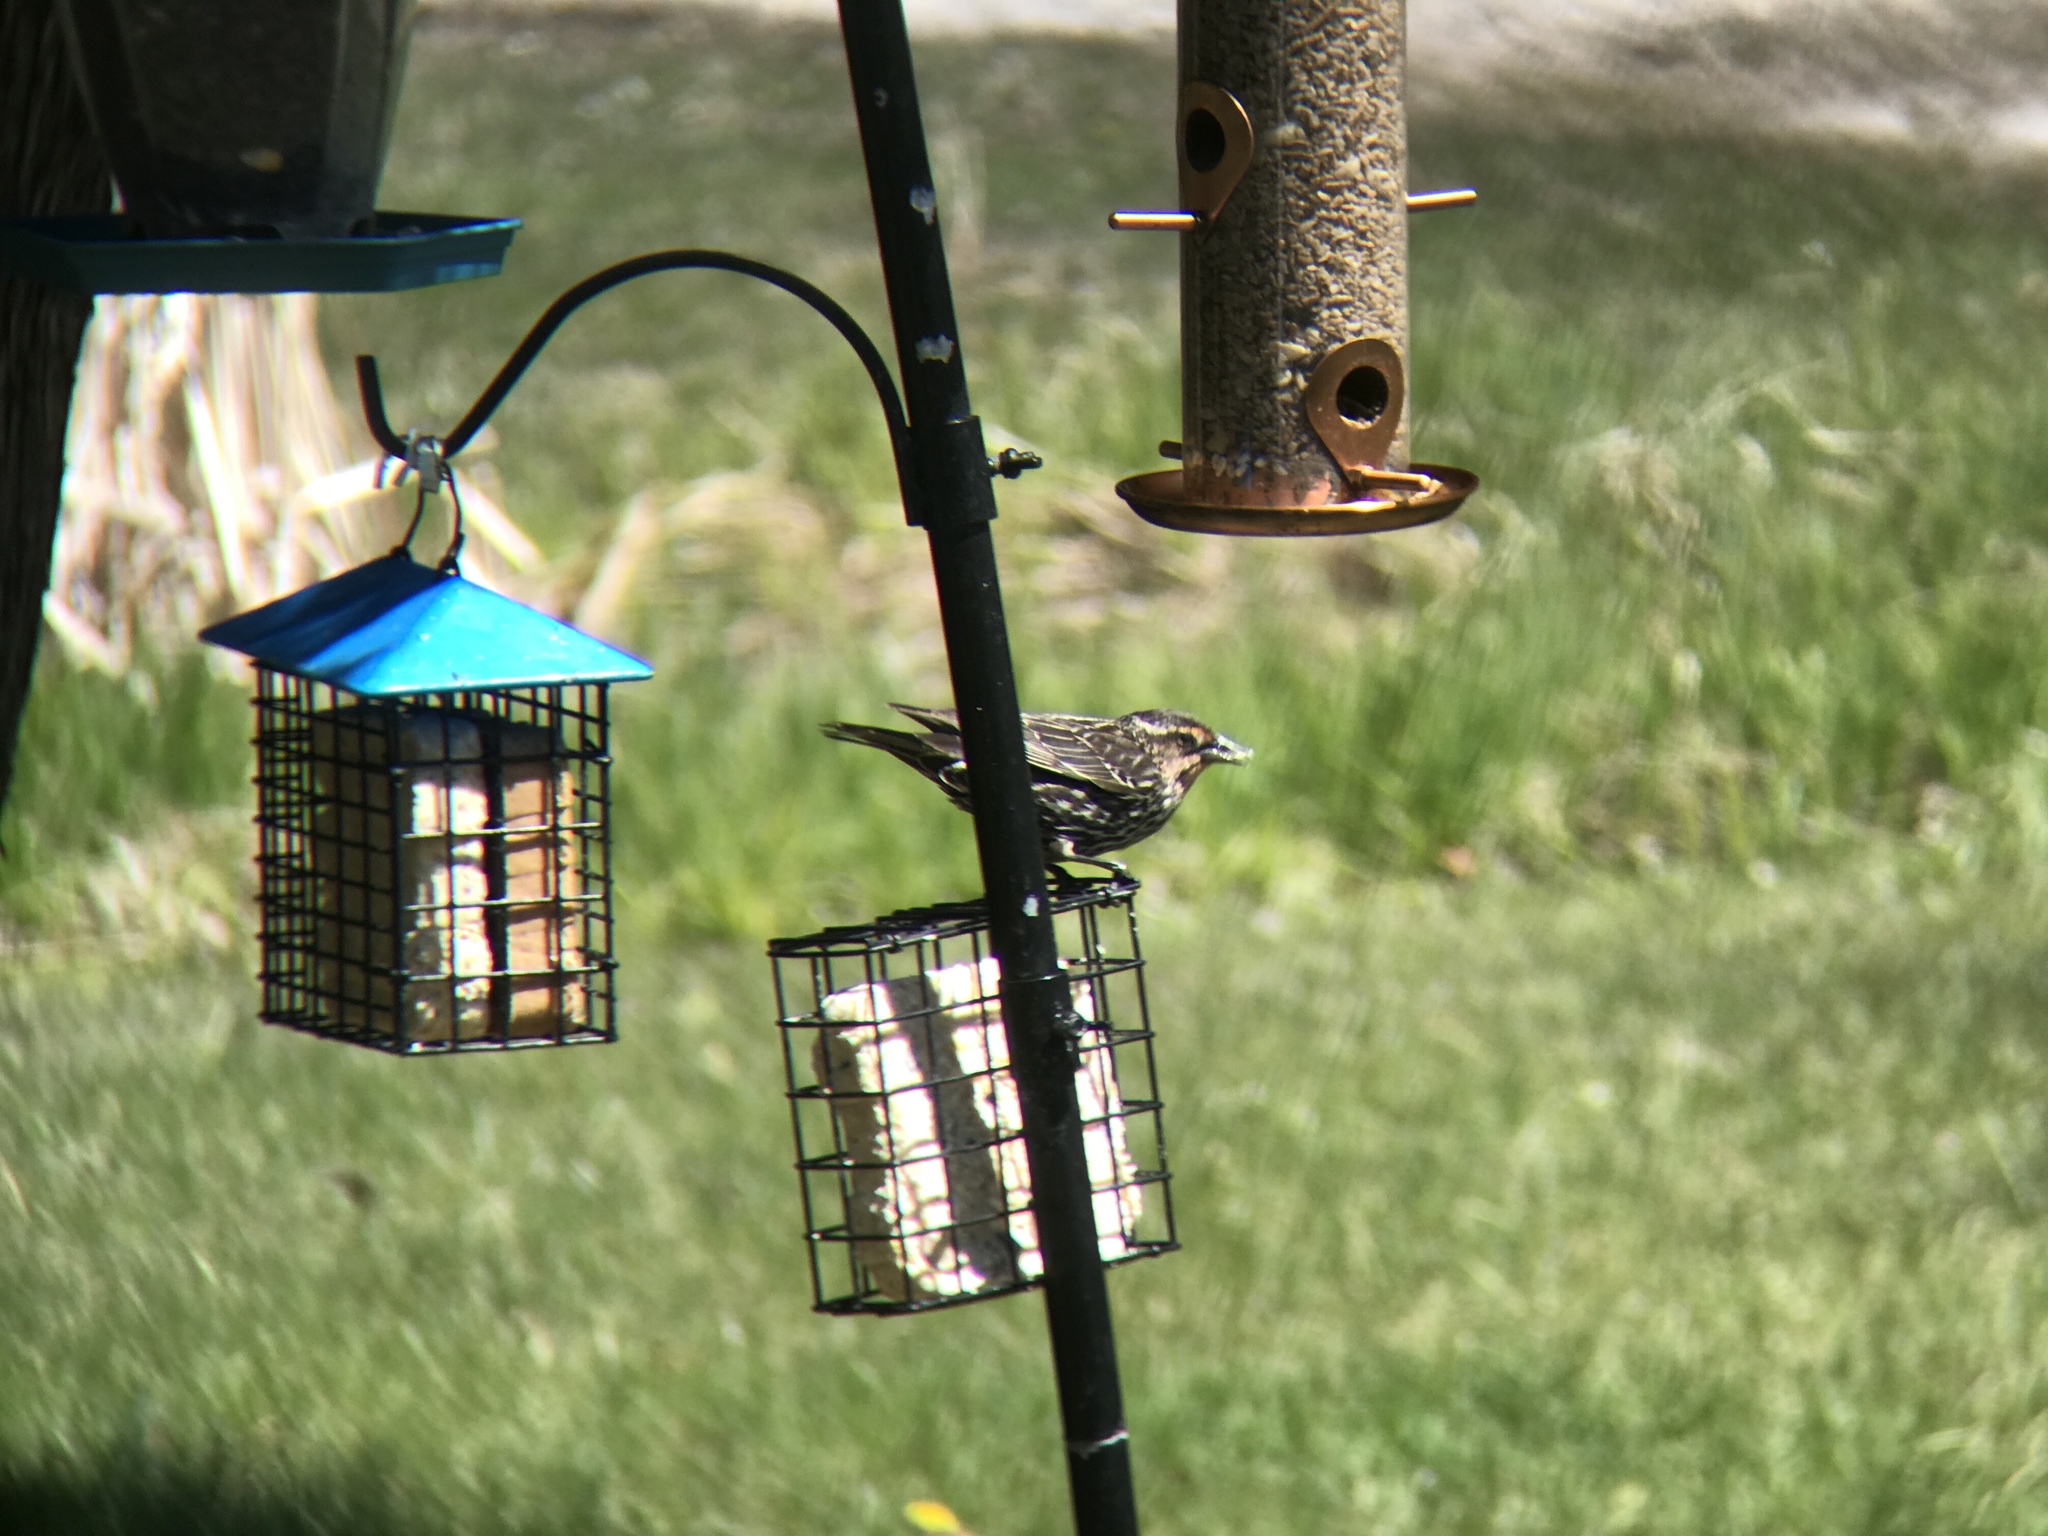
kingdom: Animalia
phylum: Chordata
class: Aves
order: Passeriformes
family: Icteridae
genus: Agelaius
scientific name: Agelaius phoeniceus
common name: Red-winged blackbird
